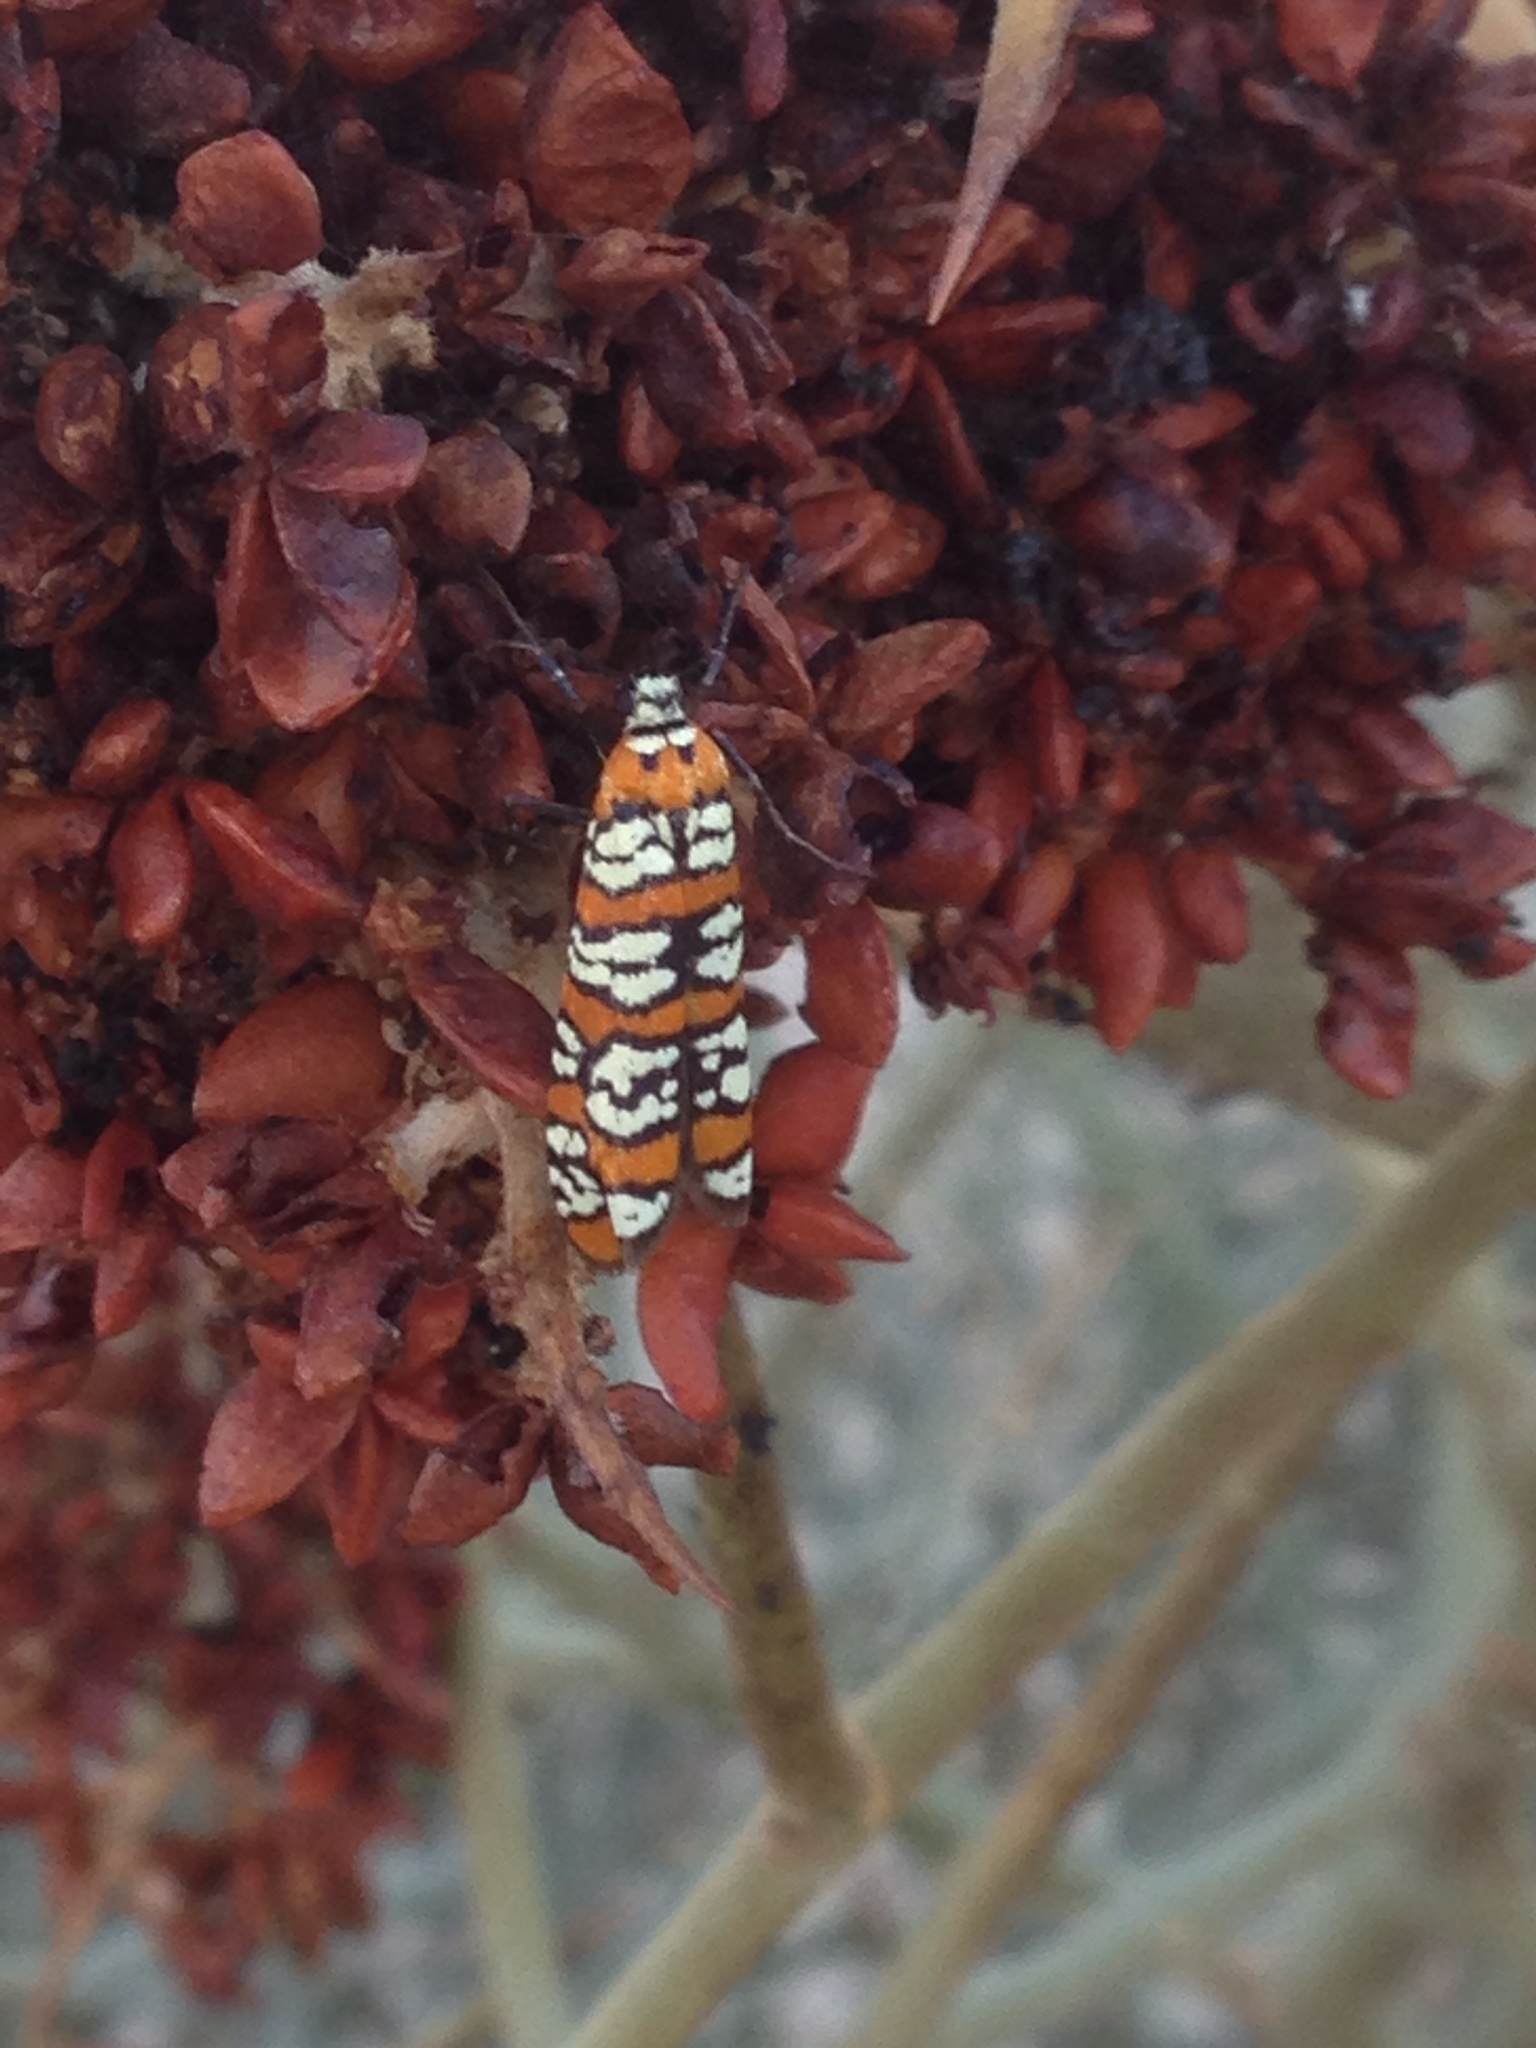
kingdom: Animalia
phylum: Arthropoda
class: Insecta
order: Lepidoptera
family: Attevidae
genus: Atteva
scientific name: Atteva punctella
